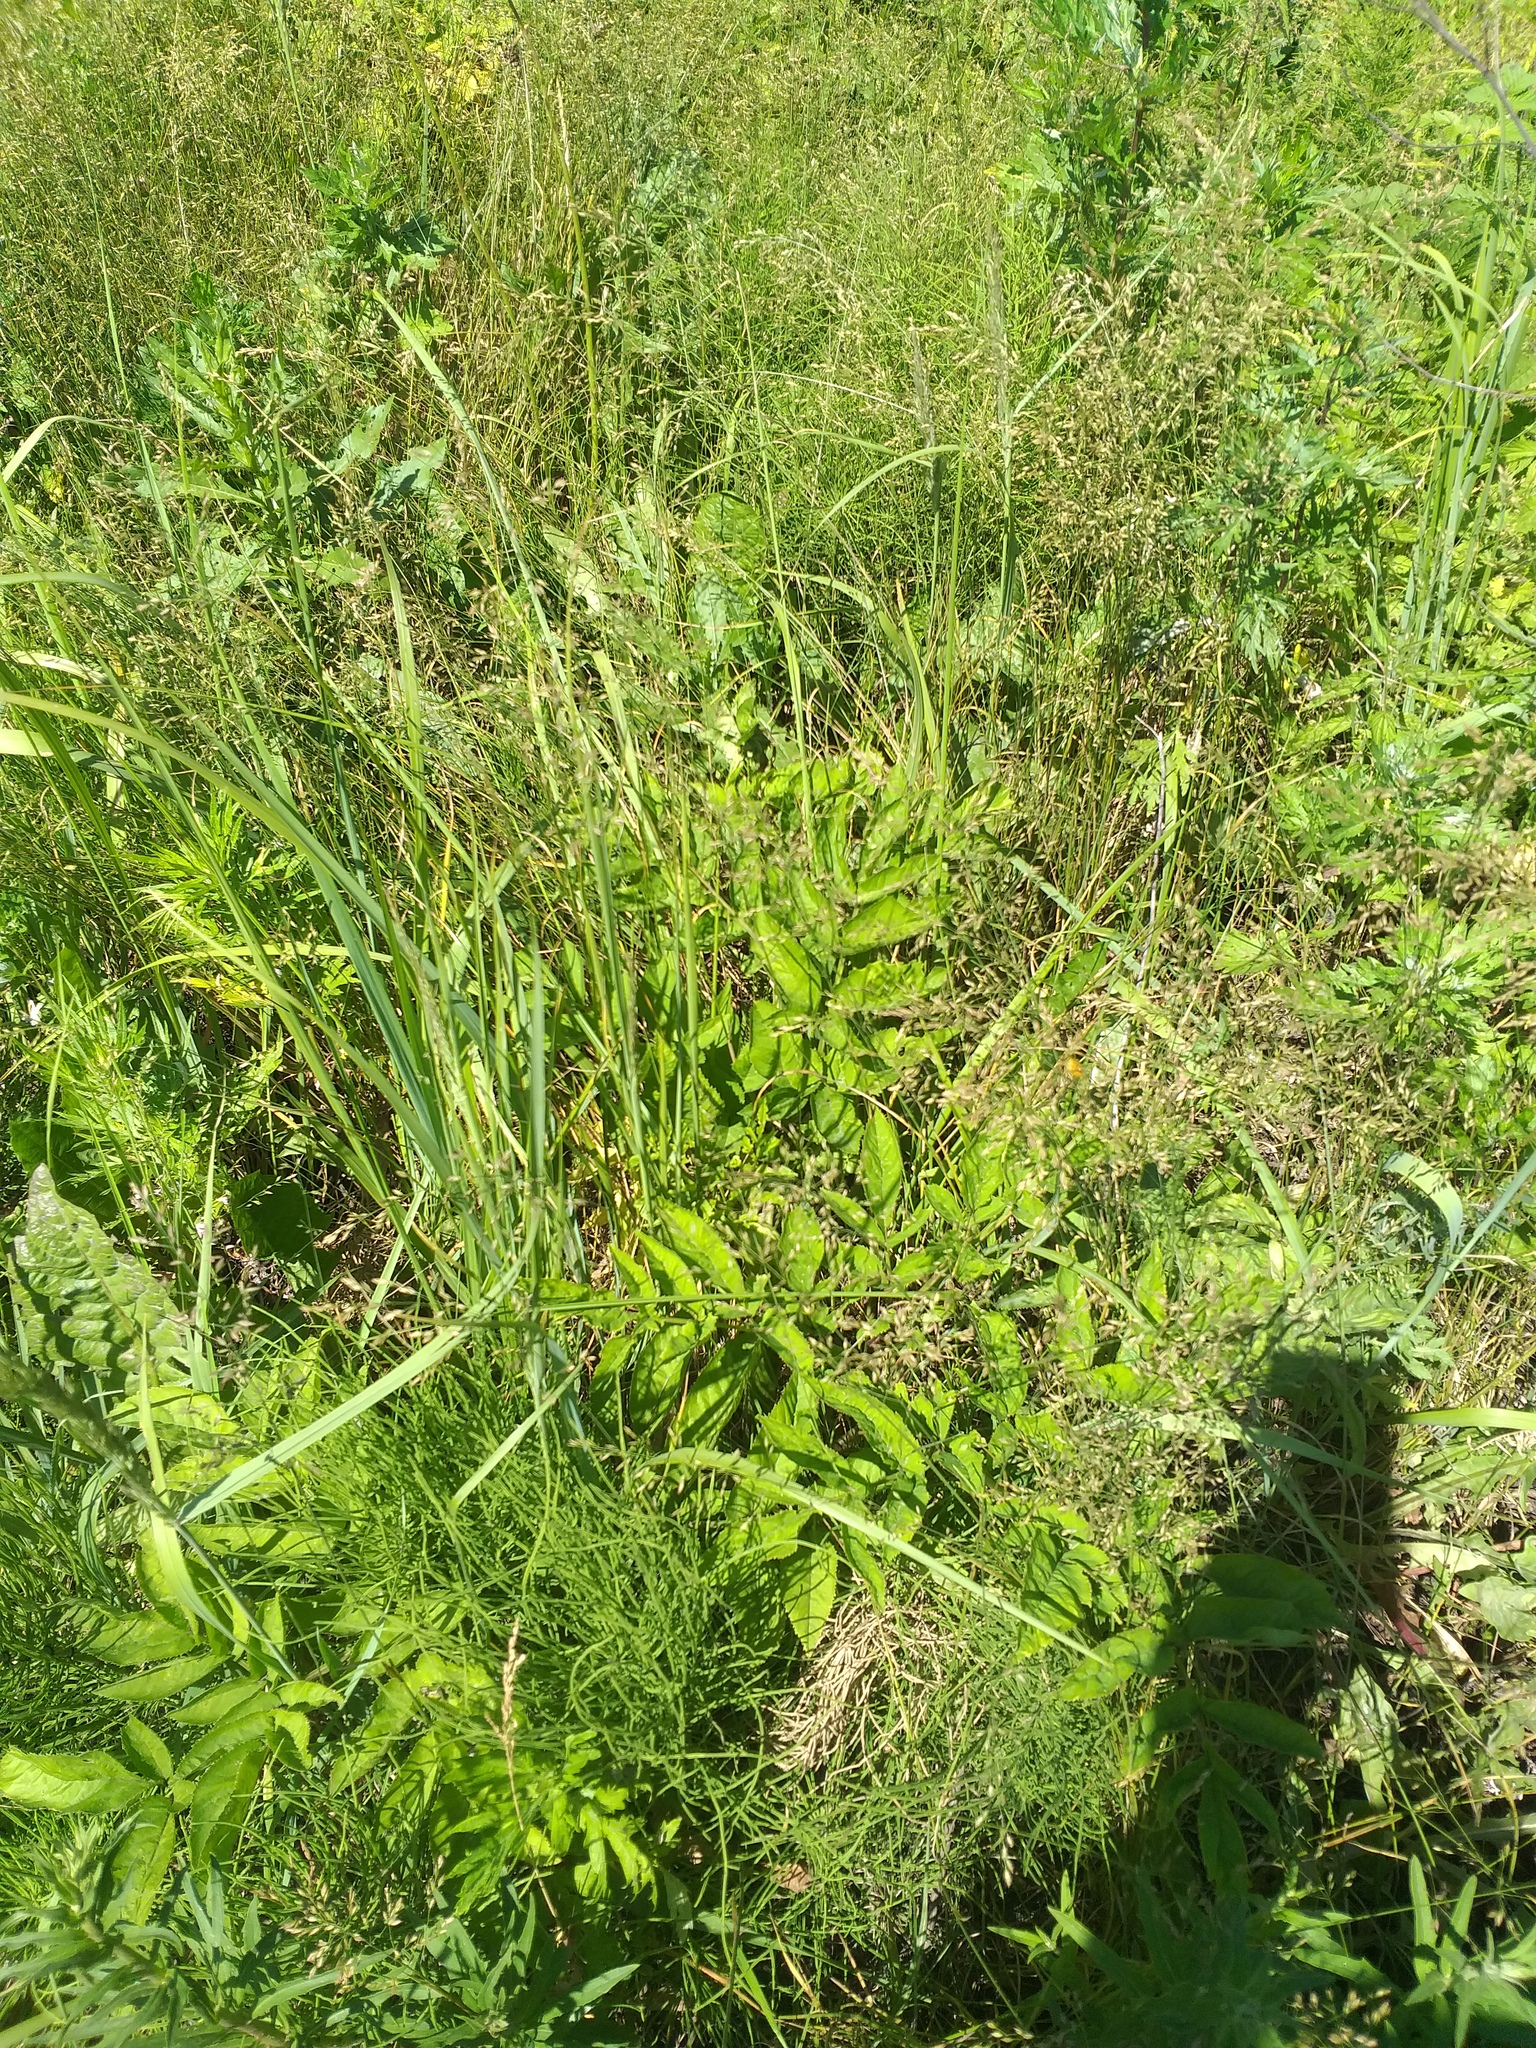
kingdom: Plantae
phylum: Tracheophyta
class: Magnoliopsida
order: Apiales
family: Apiaceae
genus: Angelica
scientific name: Angelica sylvestris
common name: Wild angelica
